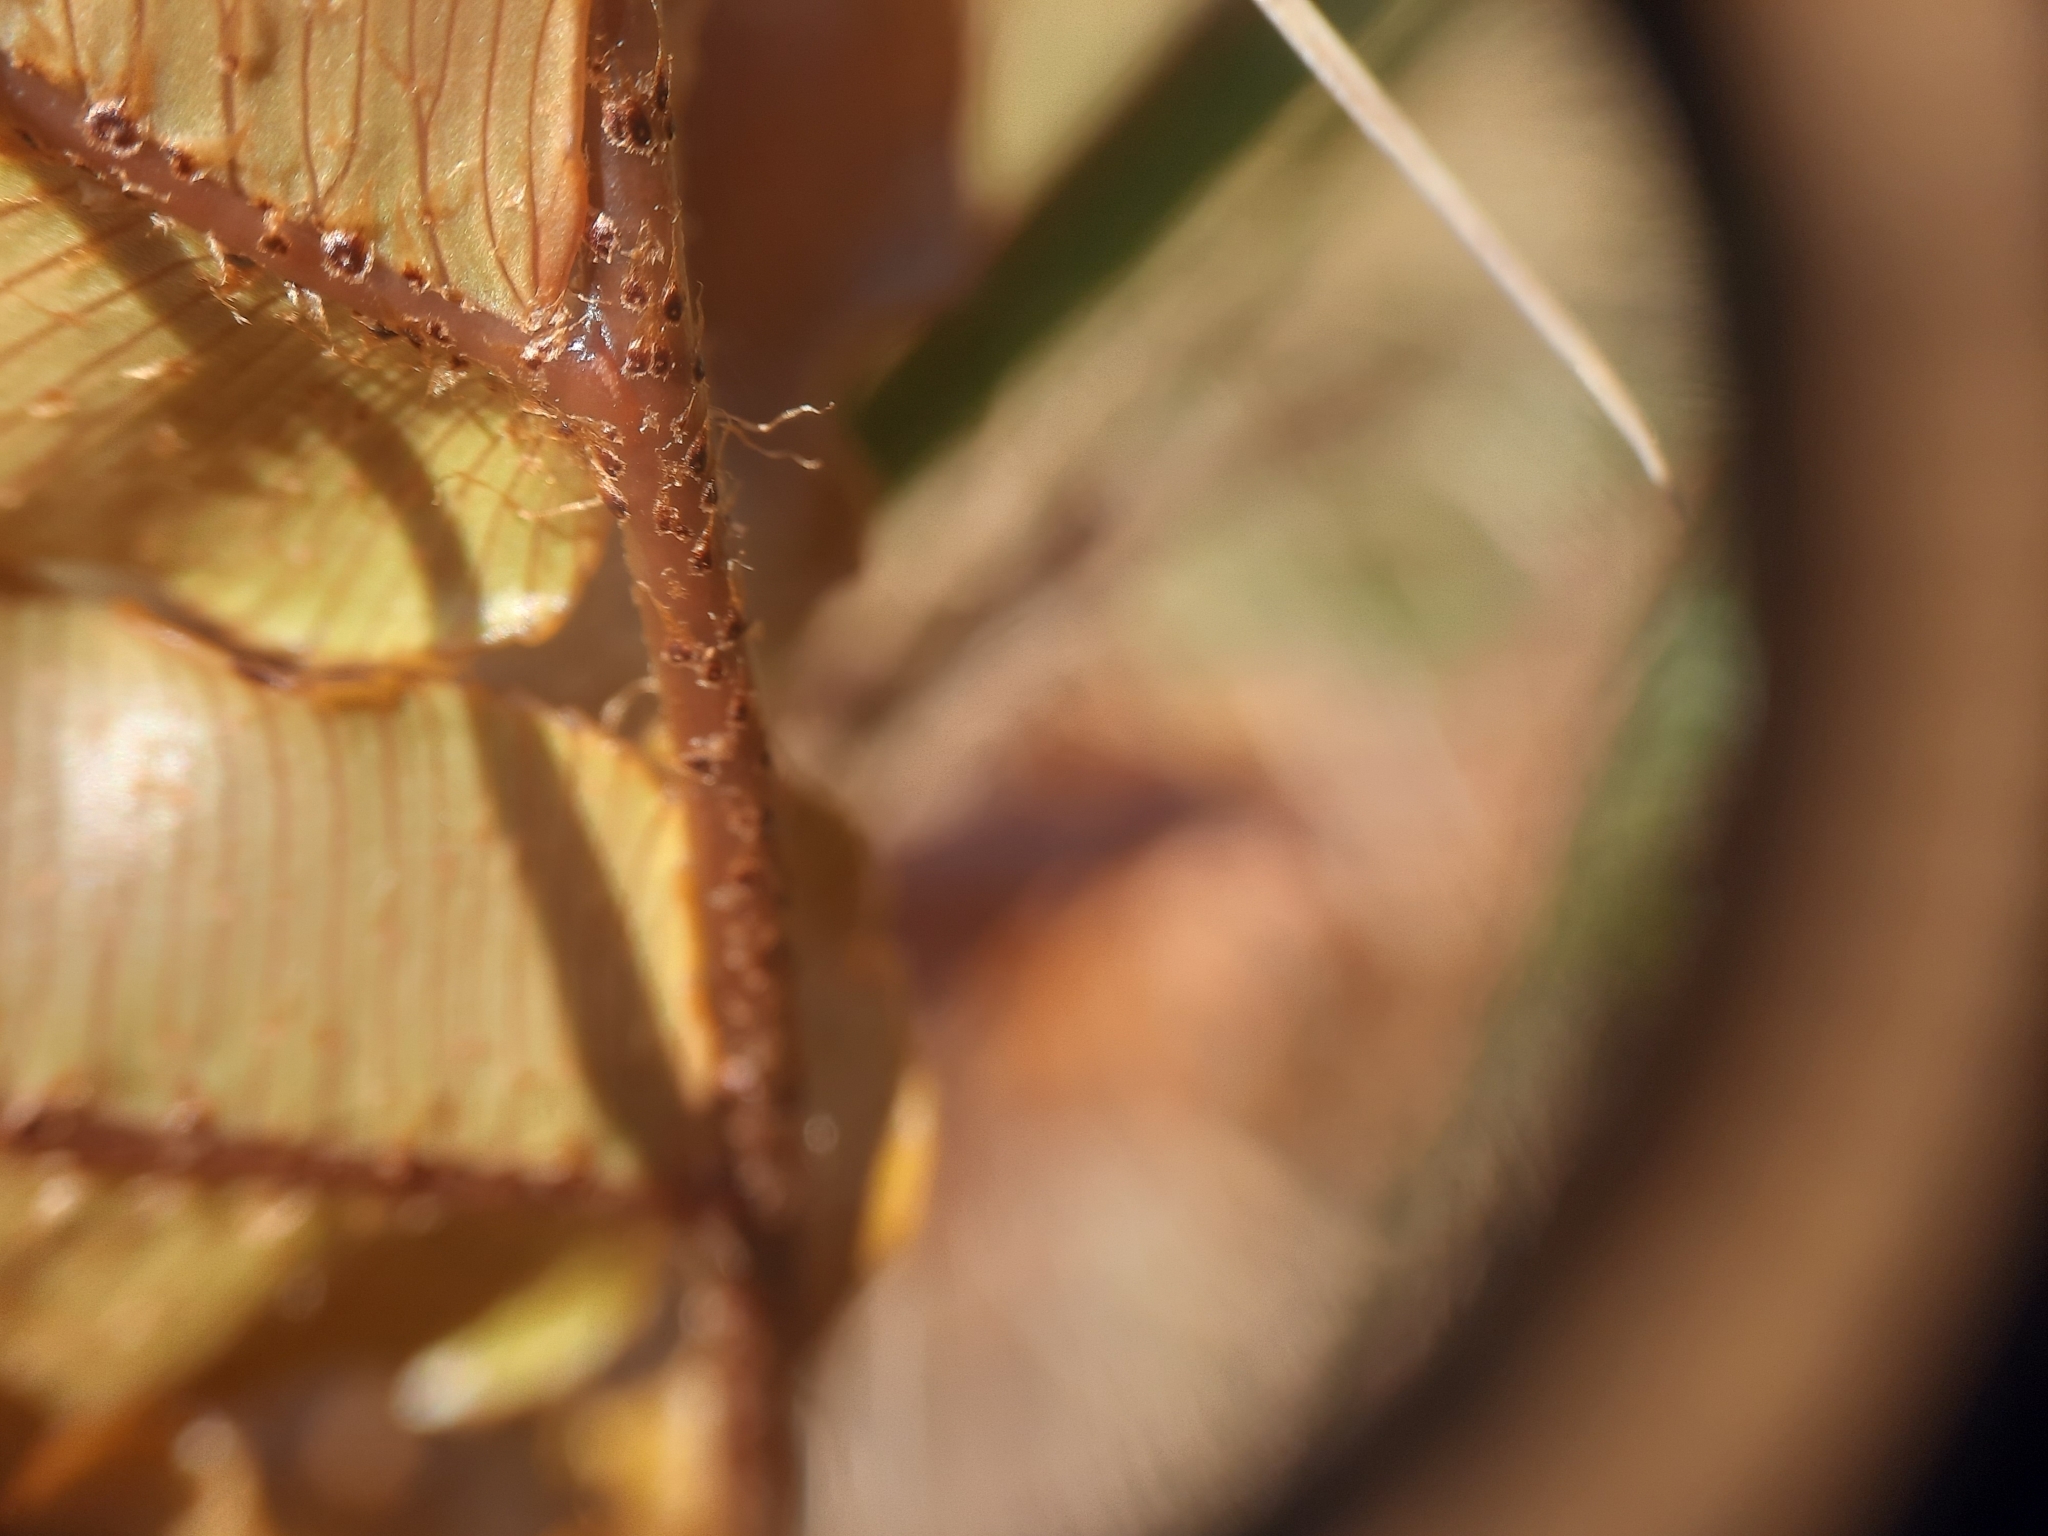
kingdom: Plantae
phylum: Tracheophyta
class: Polypodiopsida
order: Polypodiales
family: Blechnaceae
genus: Parablechnum
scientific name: Parablechnum montanum
